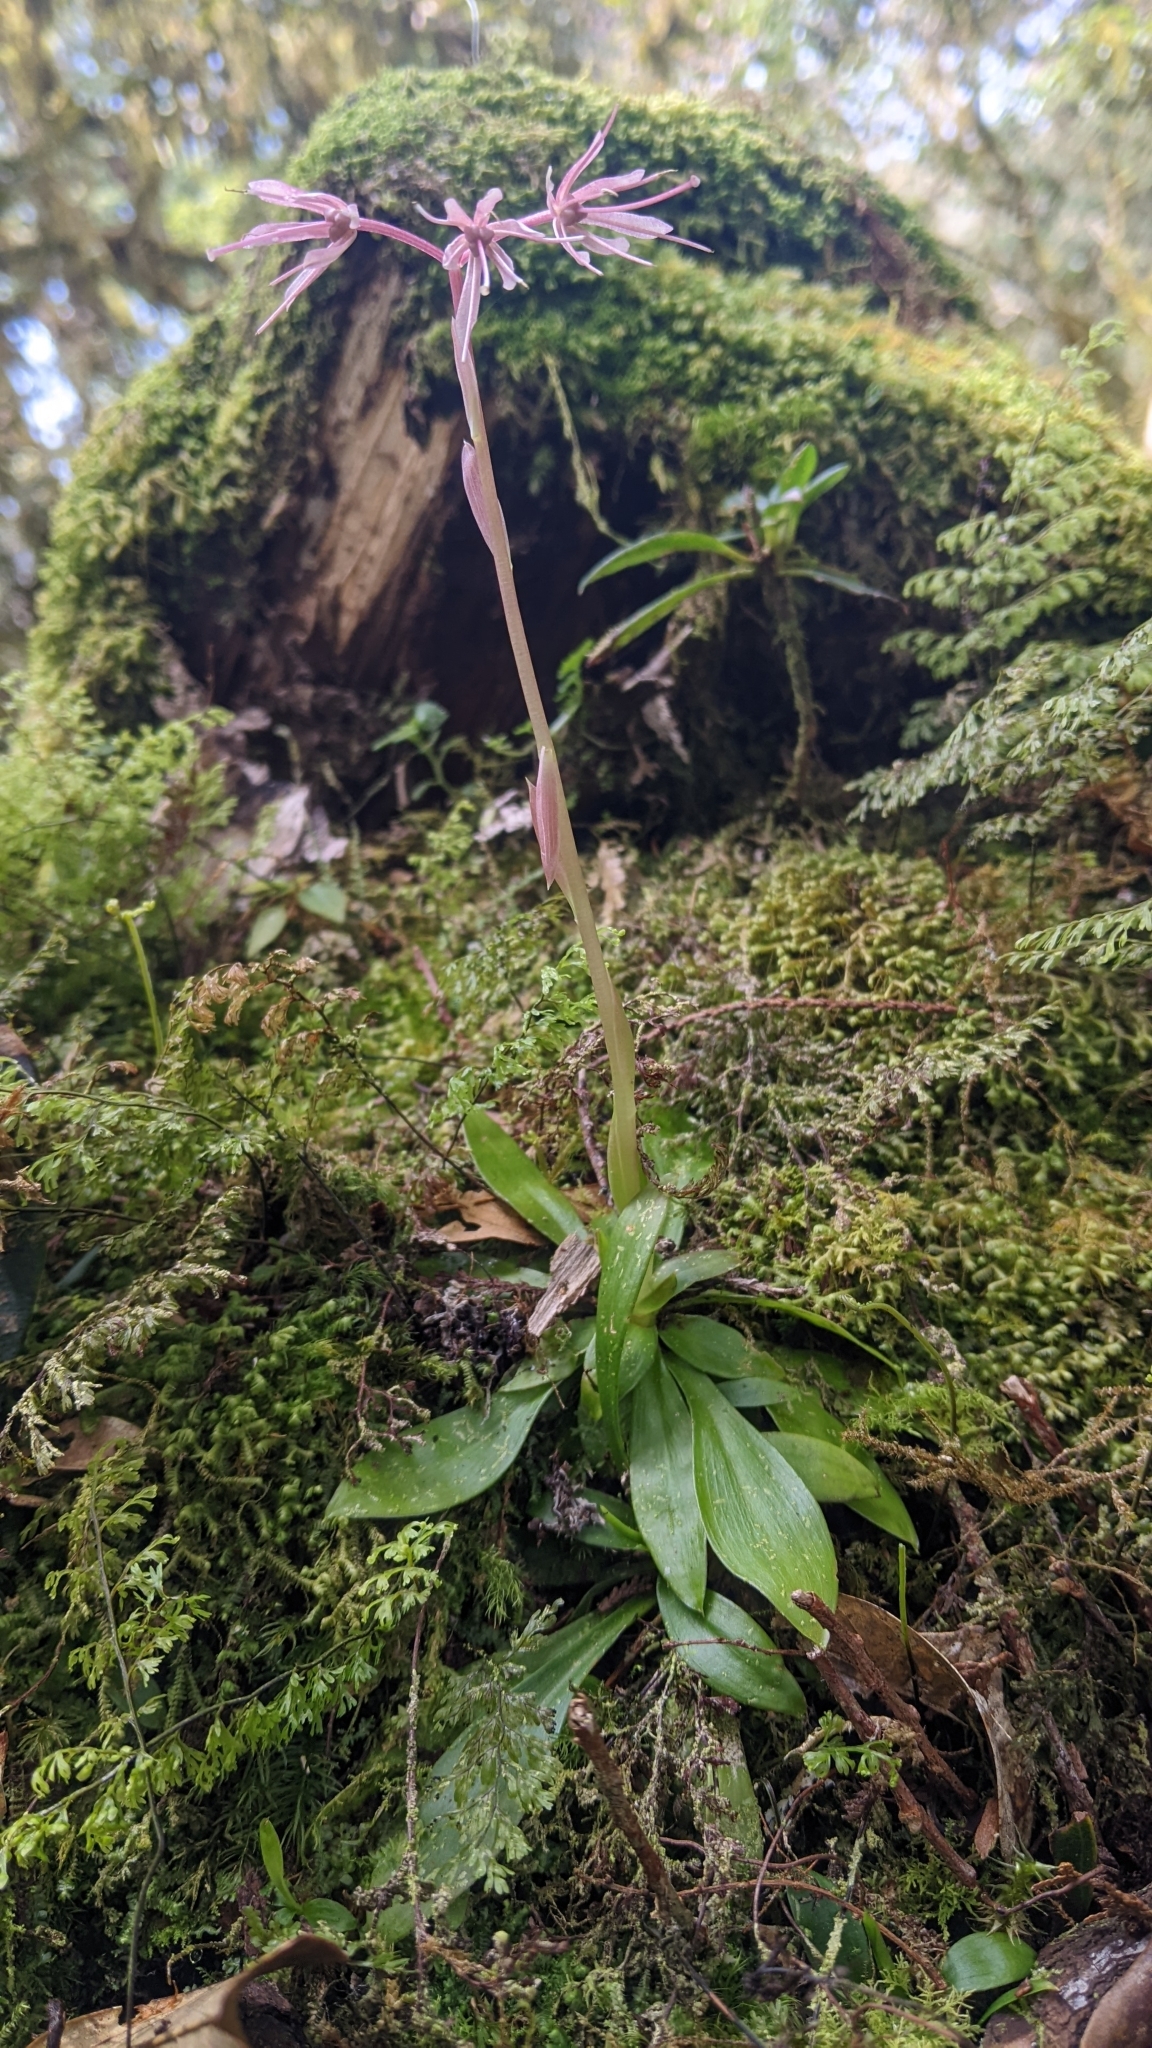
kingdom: Plantae
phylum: Tracheophyta
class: Liliopsida
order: Liliales
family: Melanthiaceae
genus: Helonias
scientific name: Helonias umbellata
